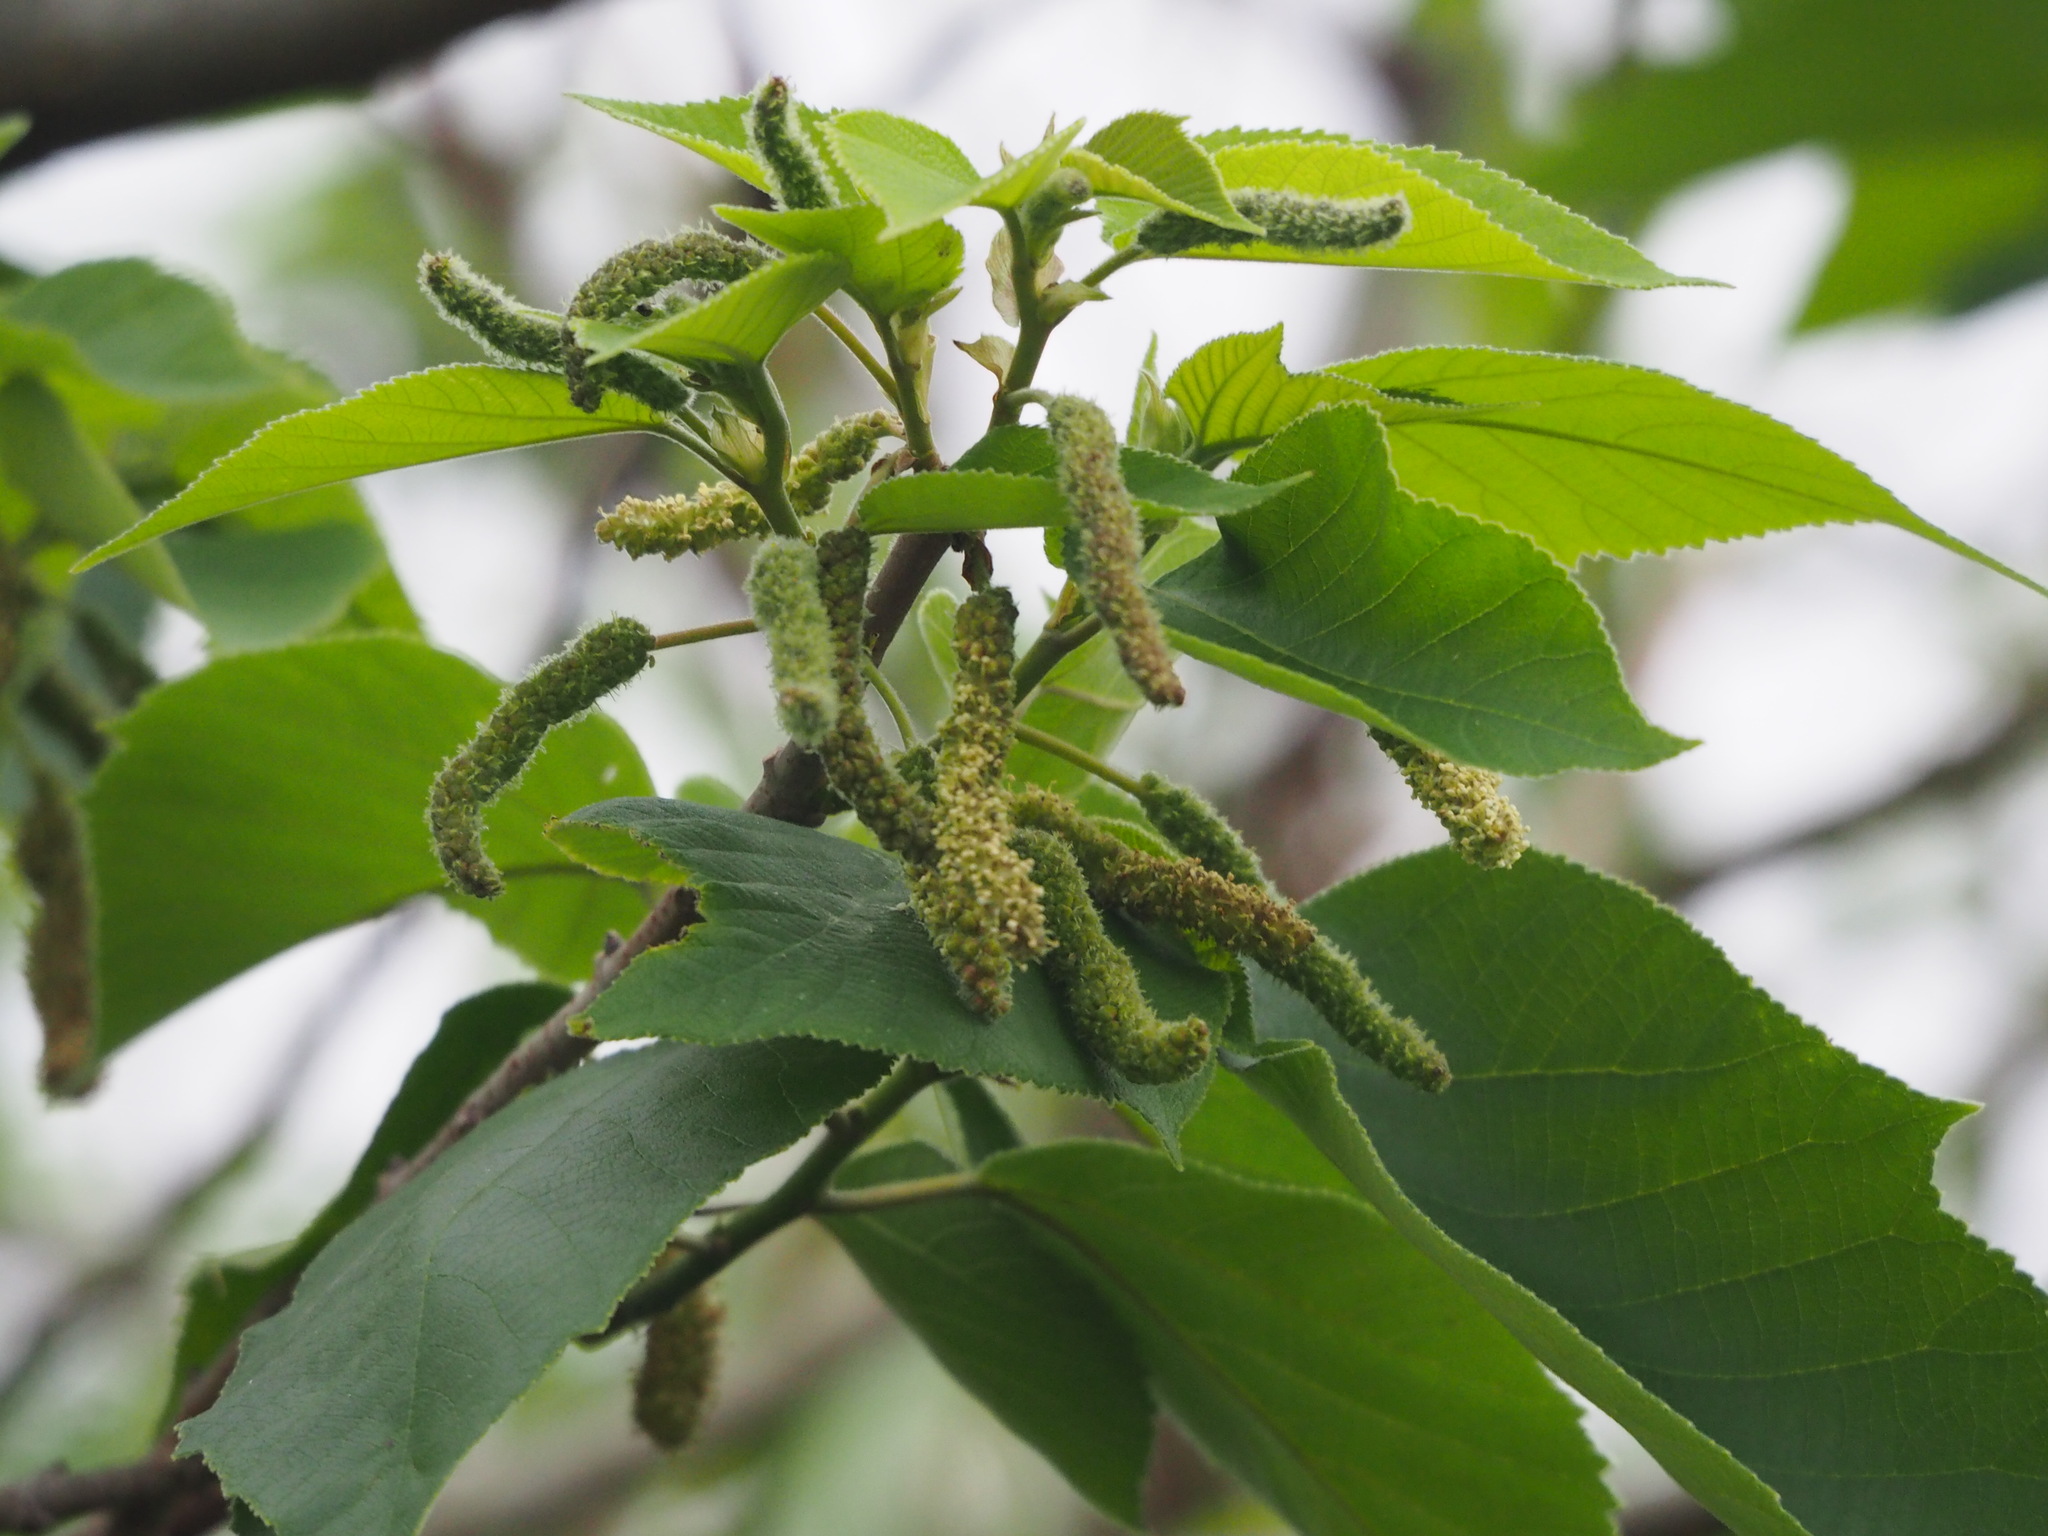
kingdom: Plantae
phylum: Tracheophyta
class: Magnoliopsida
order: Rosales
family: Moraceae
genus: Broussonetia
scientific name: Broussonetia papyrifera
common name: Paper mulberry
